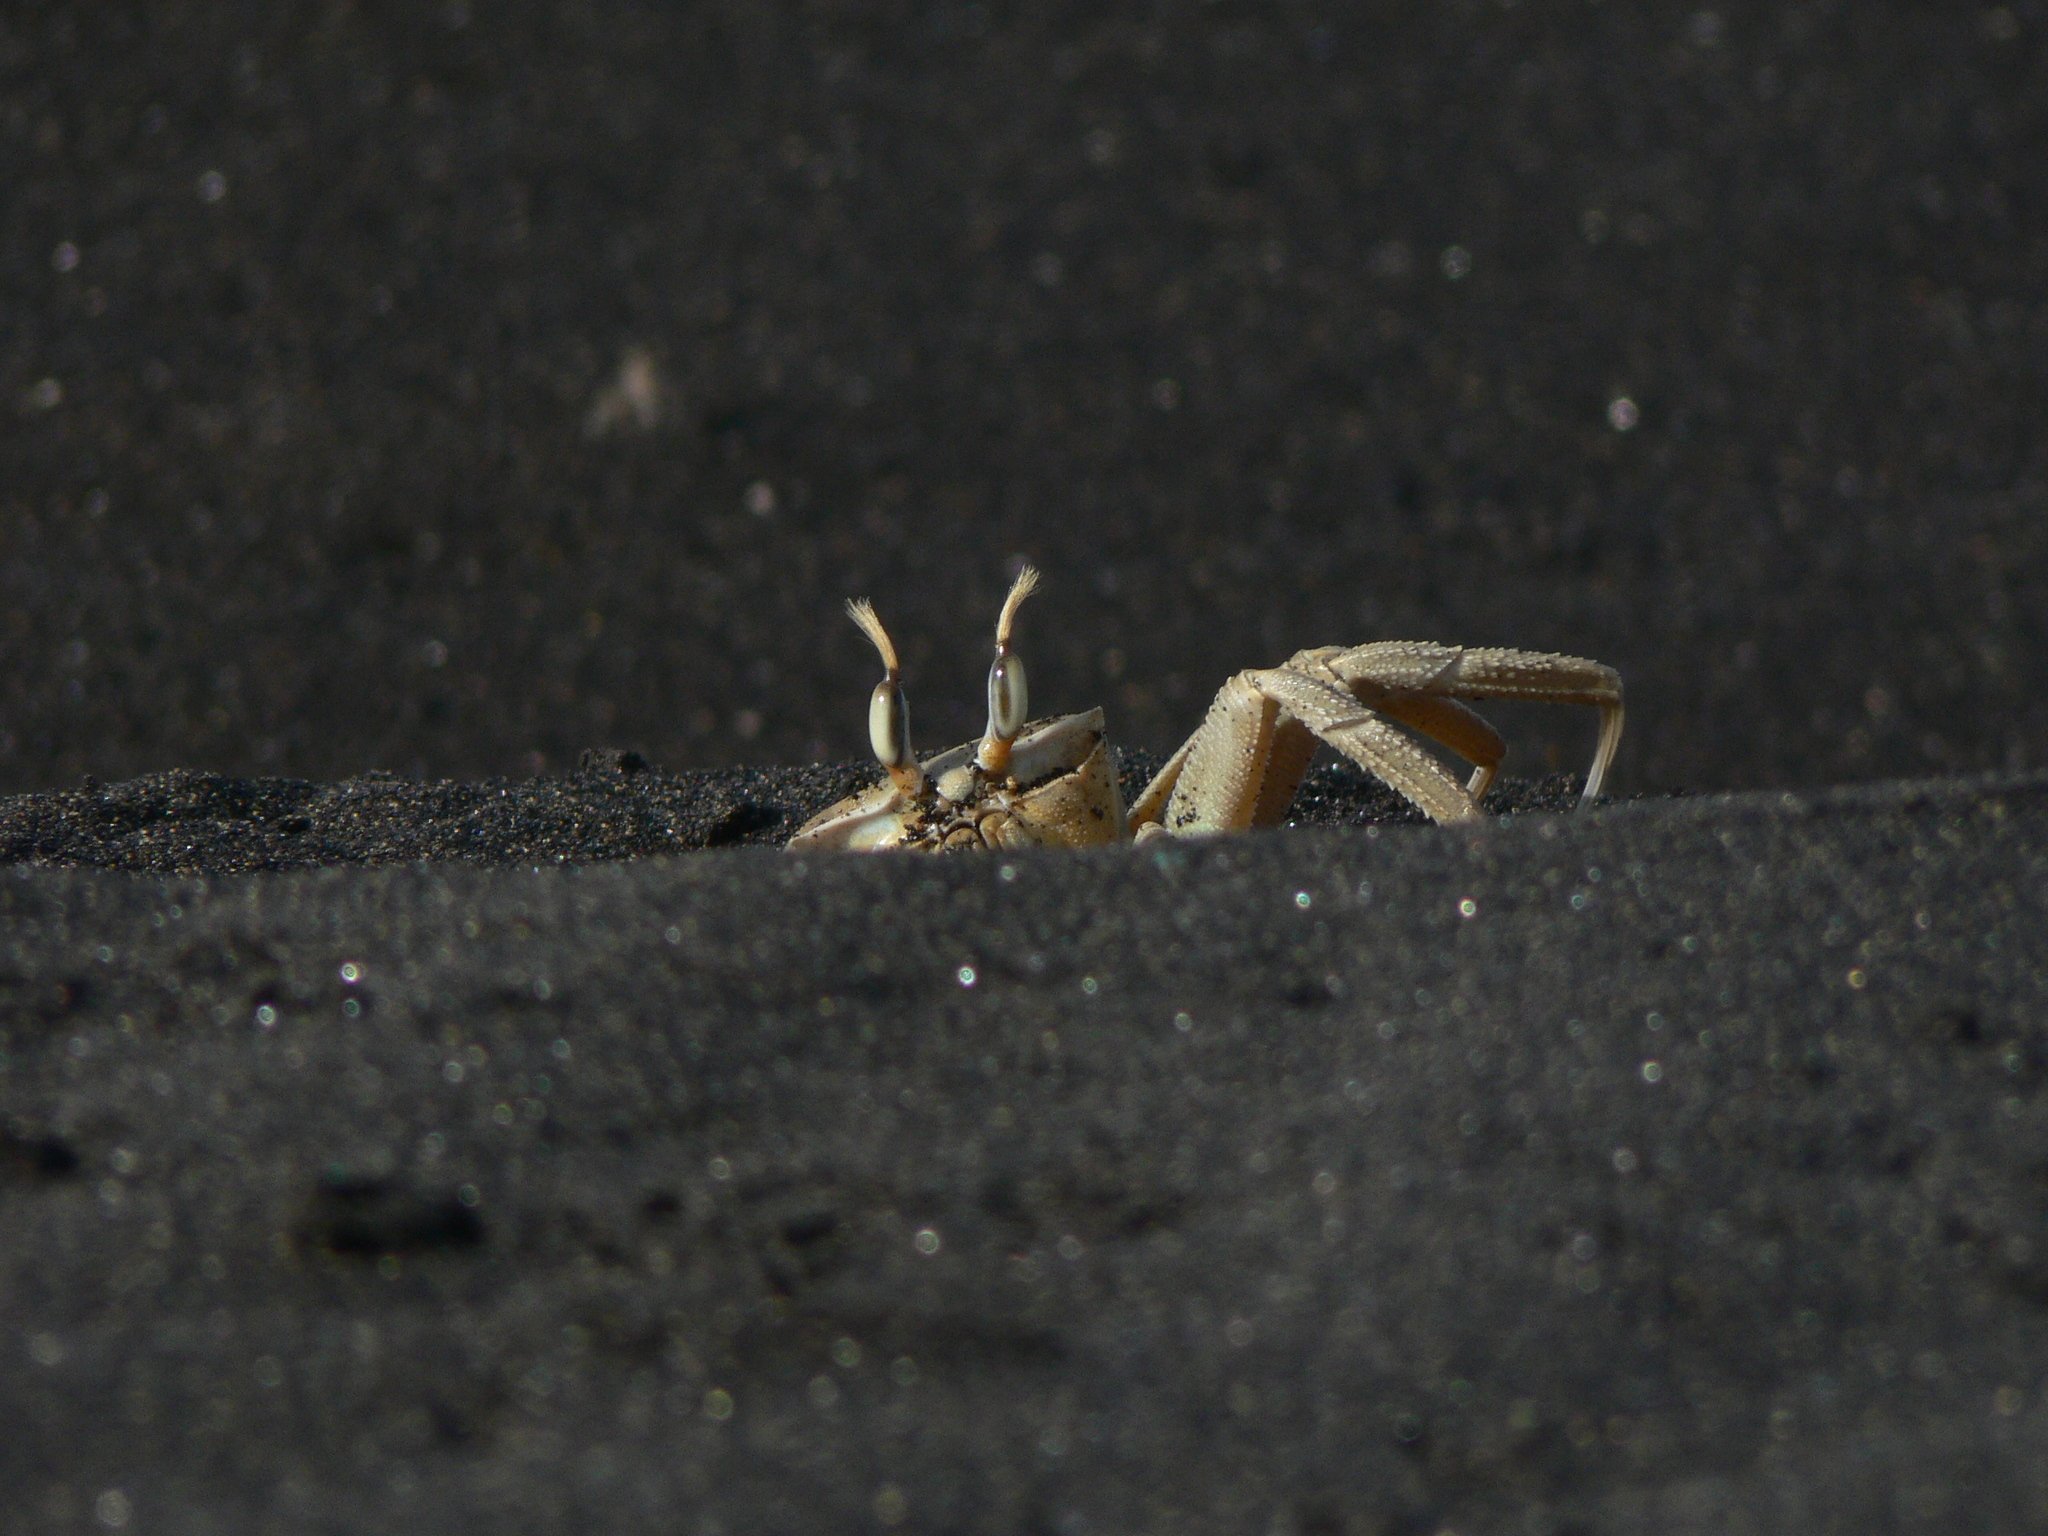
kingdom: Animalia
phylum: Arthropoda
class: Malacostraca
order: Decapoda
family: Ocypodidae
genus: Ocypode
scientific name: Ocypode cursor
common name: Tufted ghost crab
